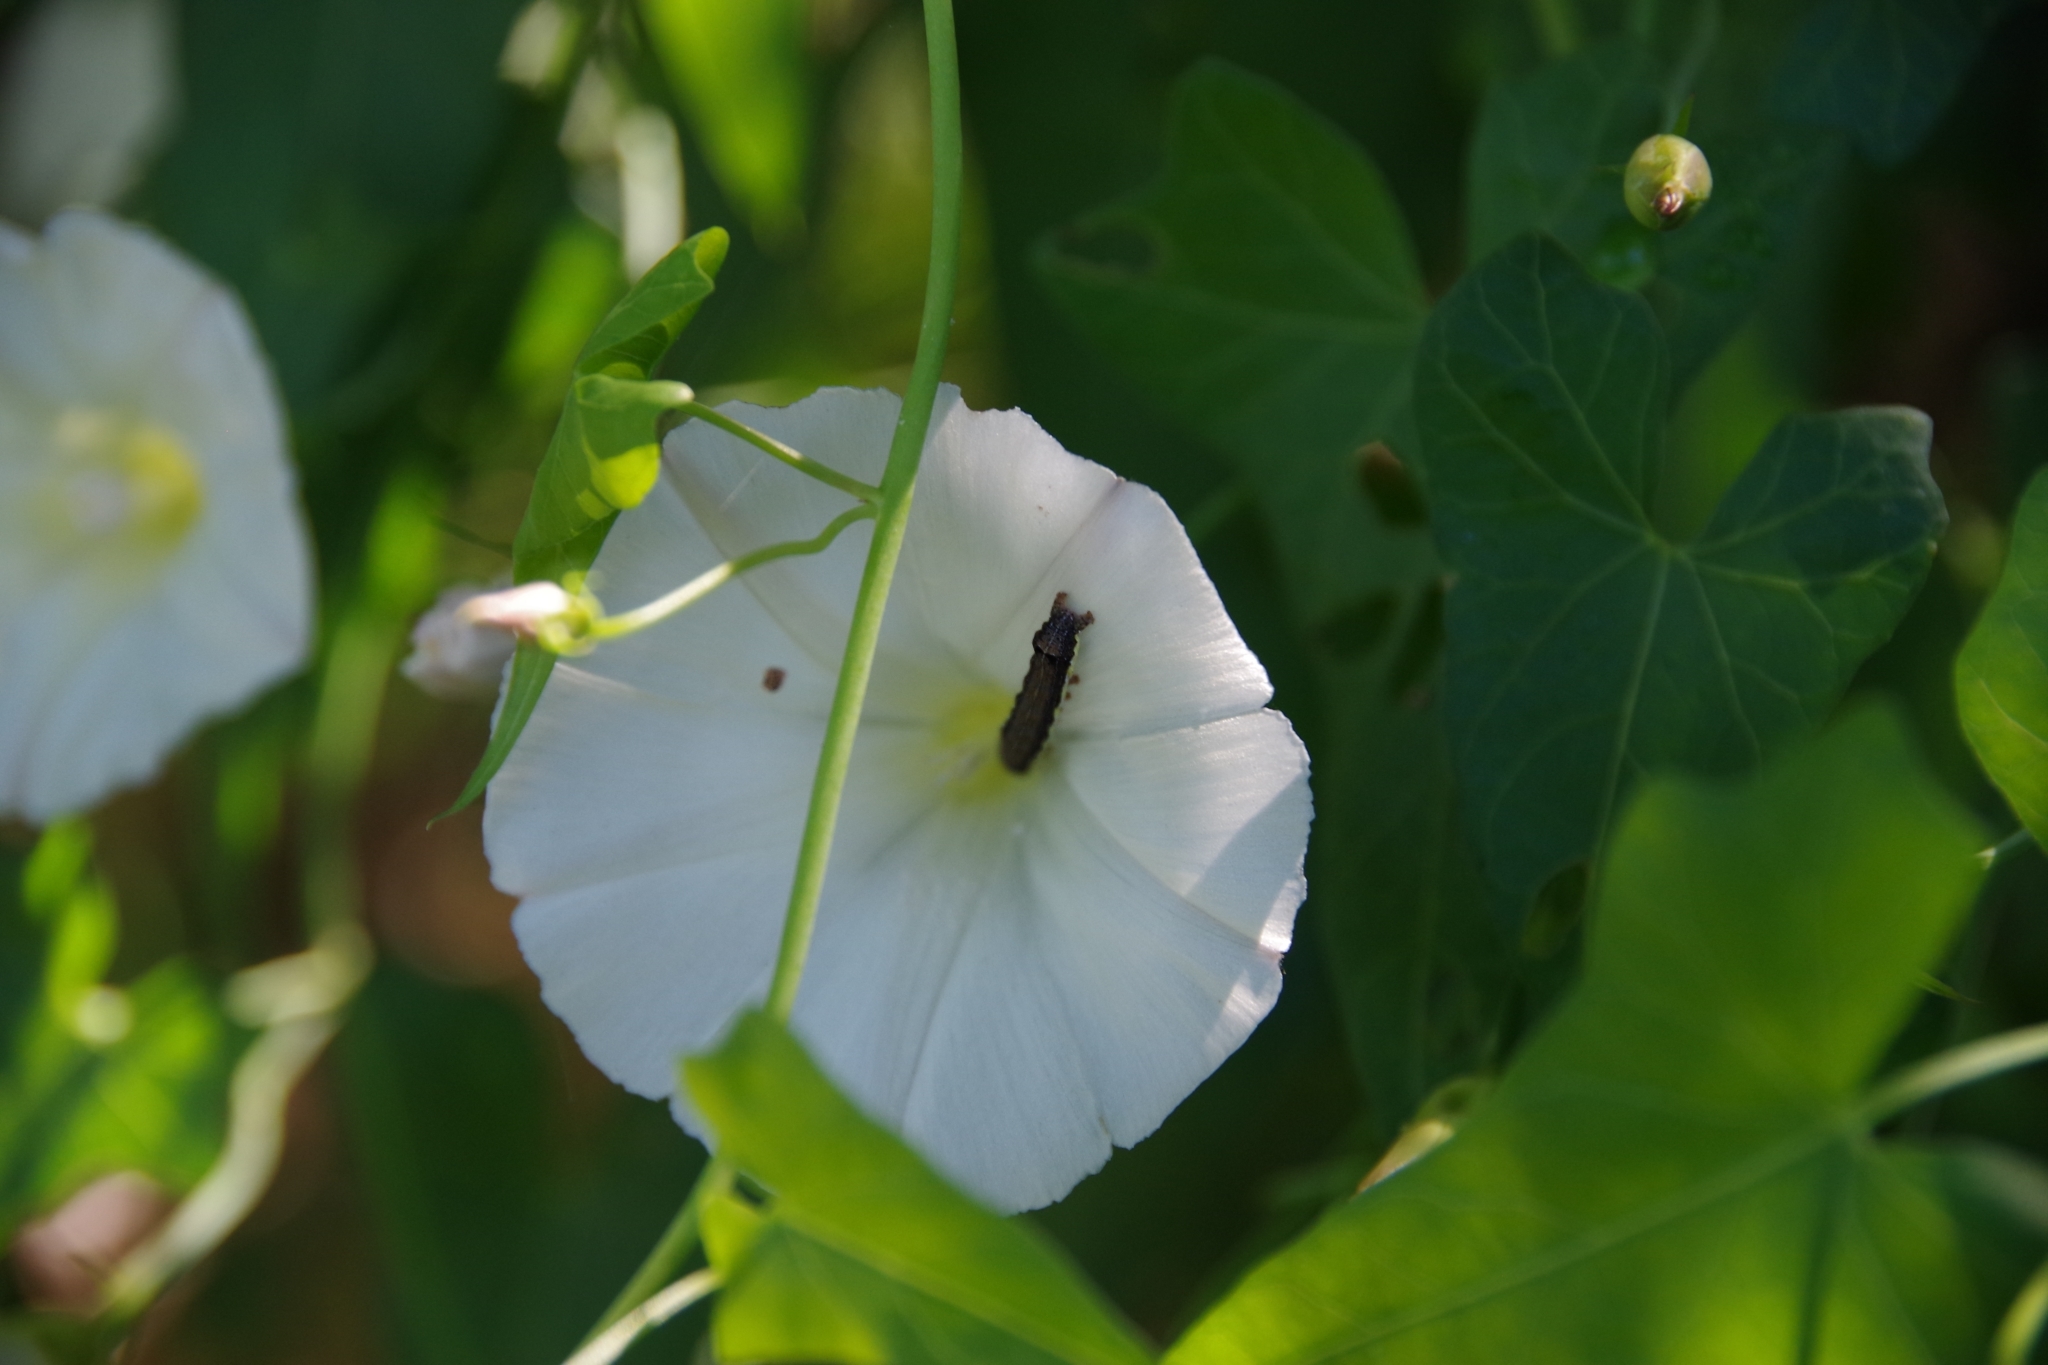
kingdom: Plantae
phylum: Tracheophyta
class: Magnoliopsida
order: Solanales
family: Convolvulaceae
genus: Calystegia
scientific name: Calystegia purpurata
